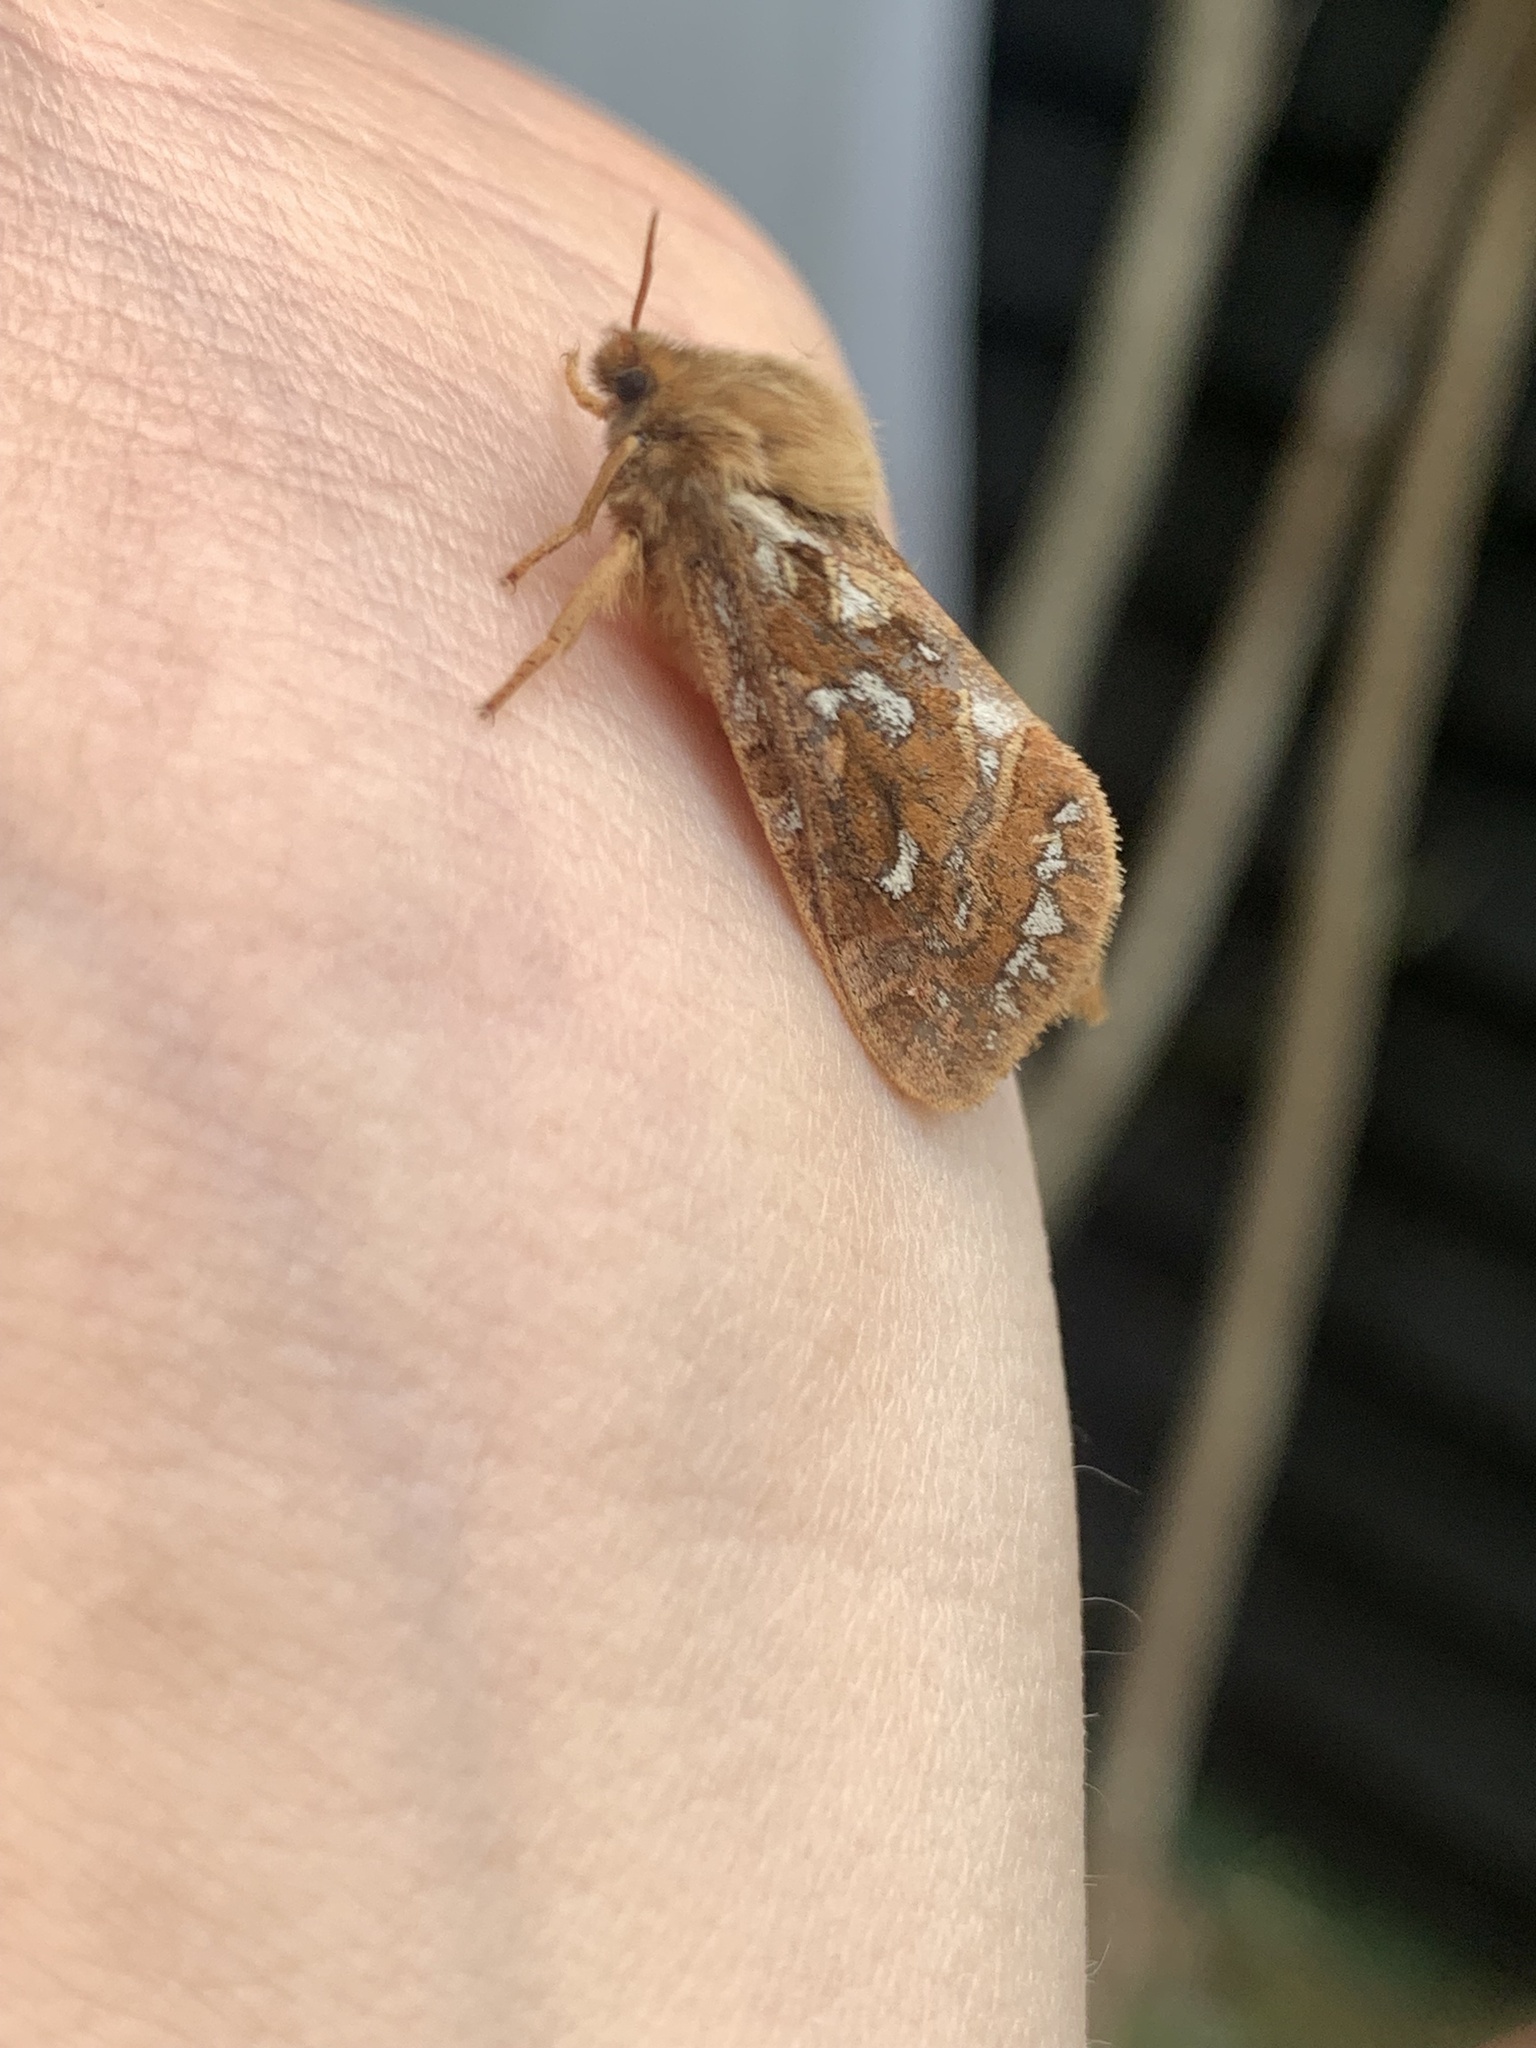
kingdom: Animalia
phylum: Arthropoda
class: Insecta
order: Lepidoptera
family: Hepialidae
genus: Korscheltellus
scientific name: Korscheltellus fusconebulosus
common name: Map-winged swift
